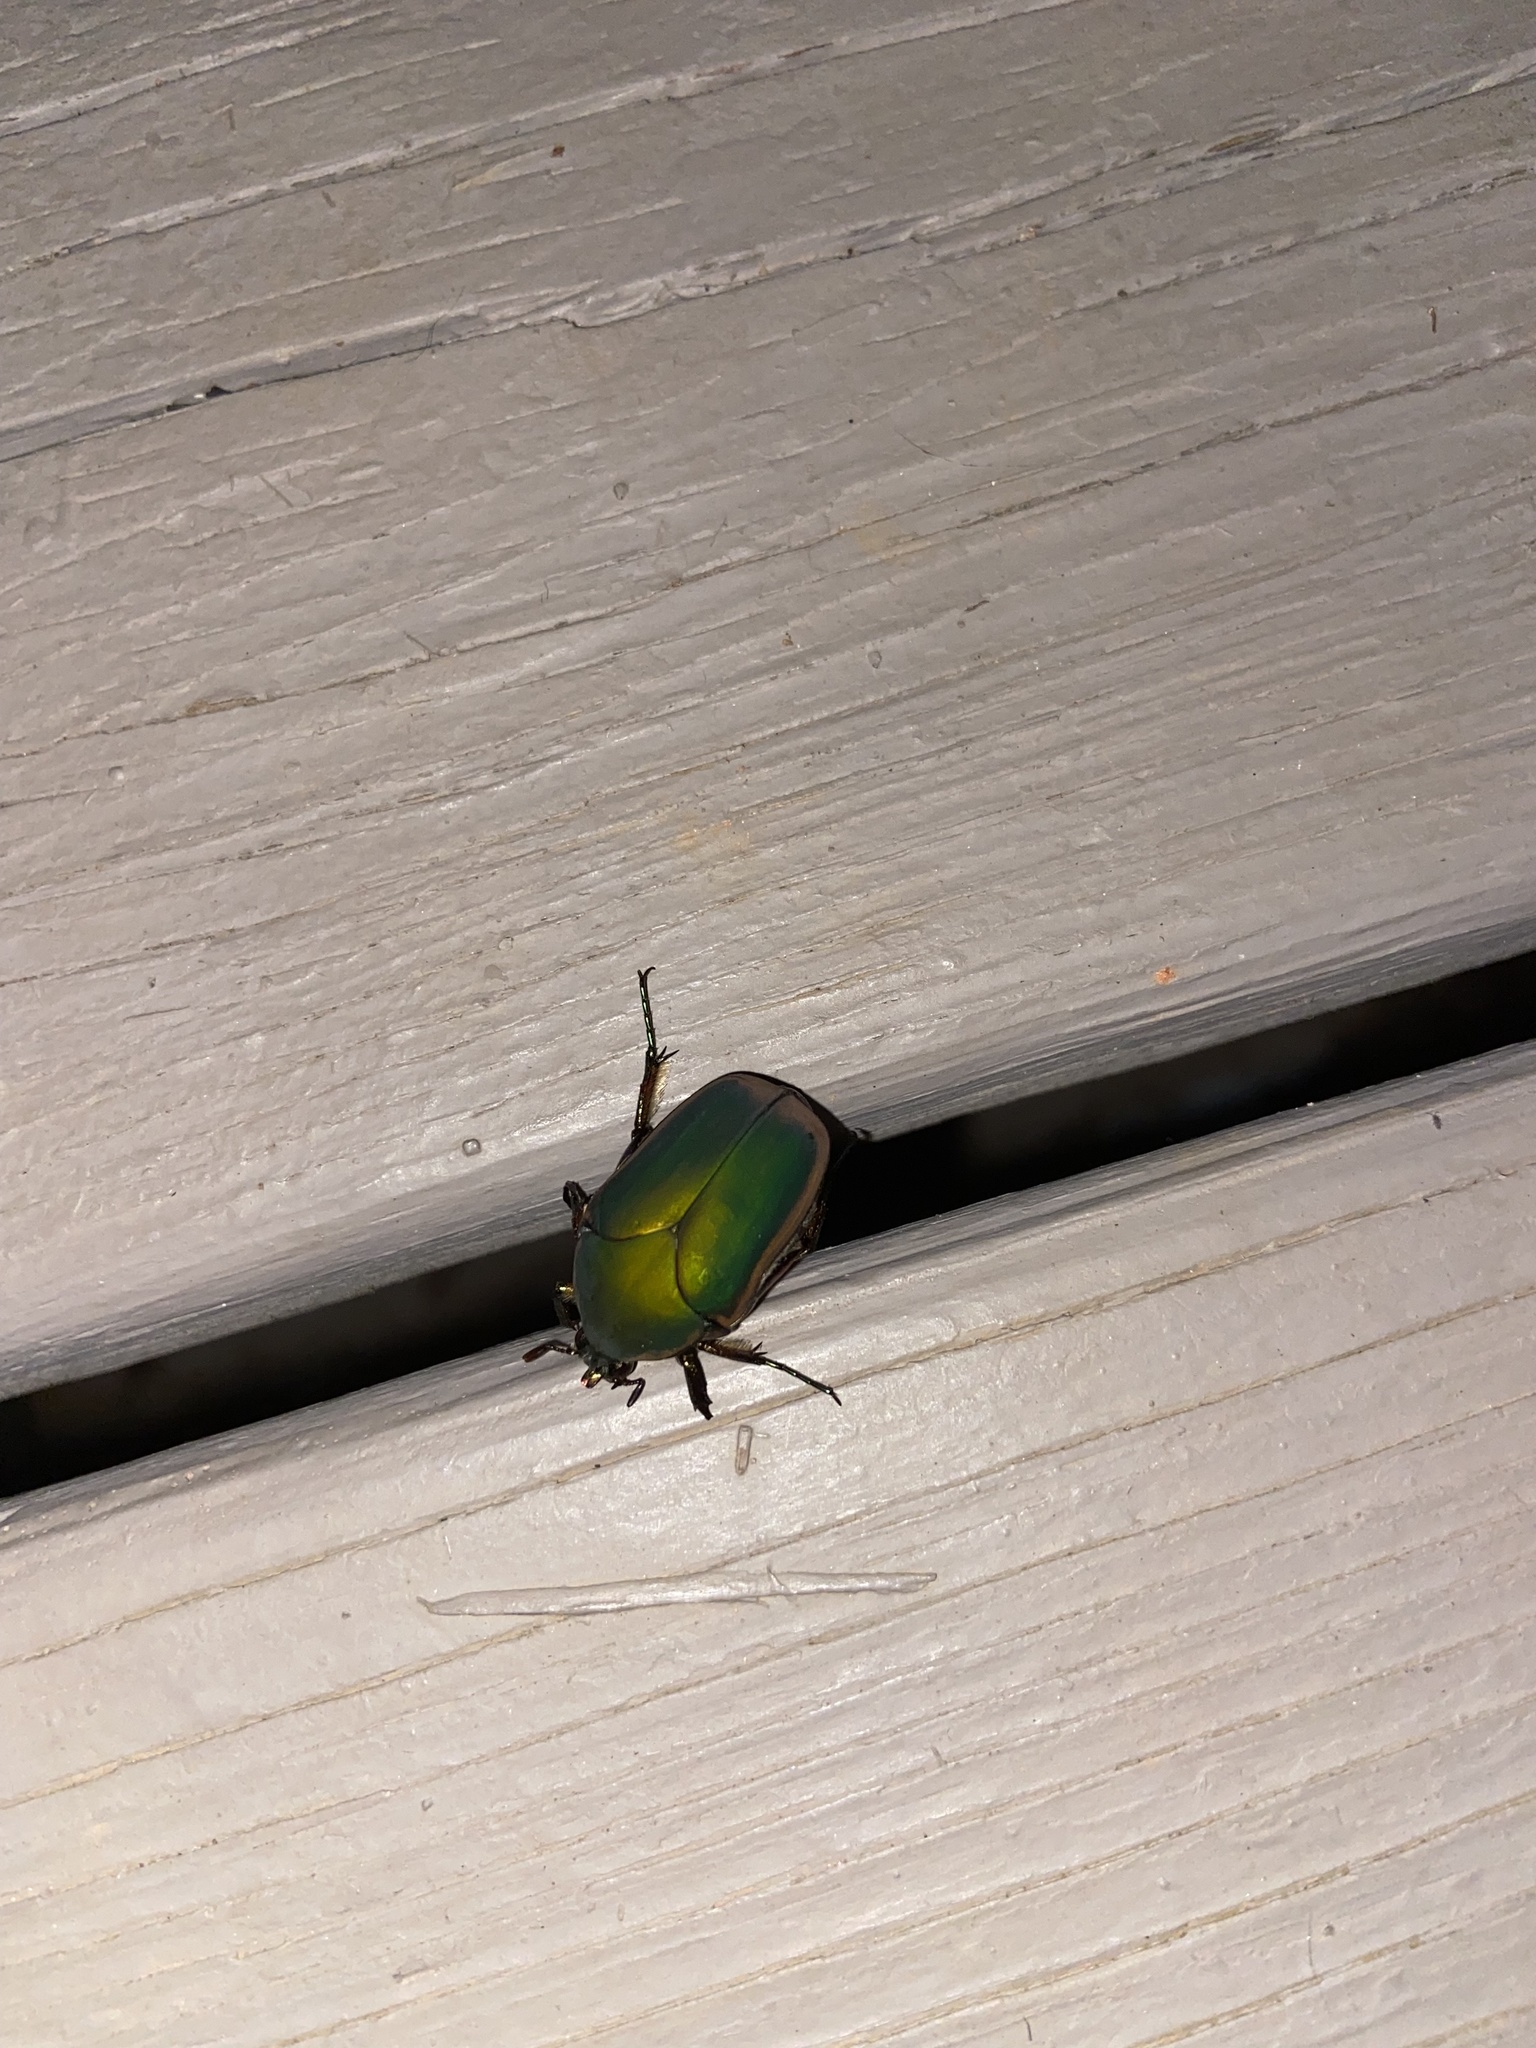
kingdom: Animalia
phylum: Arthropoda
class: Insecta
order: Coleoptera
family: Scarabaeidae
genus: Cotinis
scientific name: Cotinis nitida
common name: Common green june beetle
